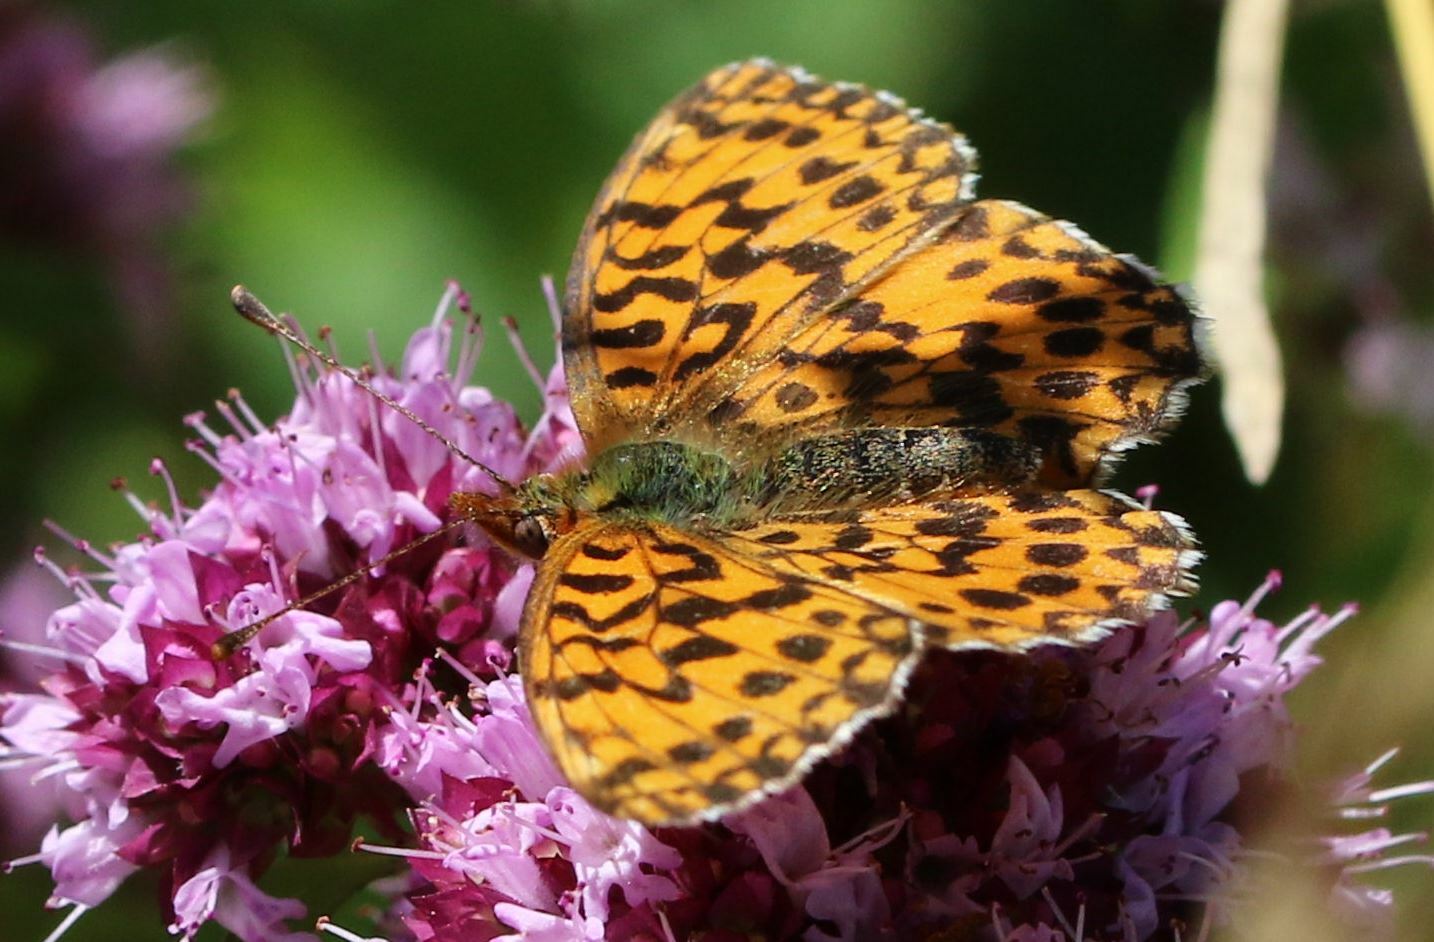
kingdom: Animalia
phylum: Arthropoda
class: Insecta
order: Lepidoptera
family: Nymphalidae
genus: Boloria
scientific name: Boloria dia
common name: Weaver's fritillary
